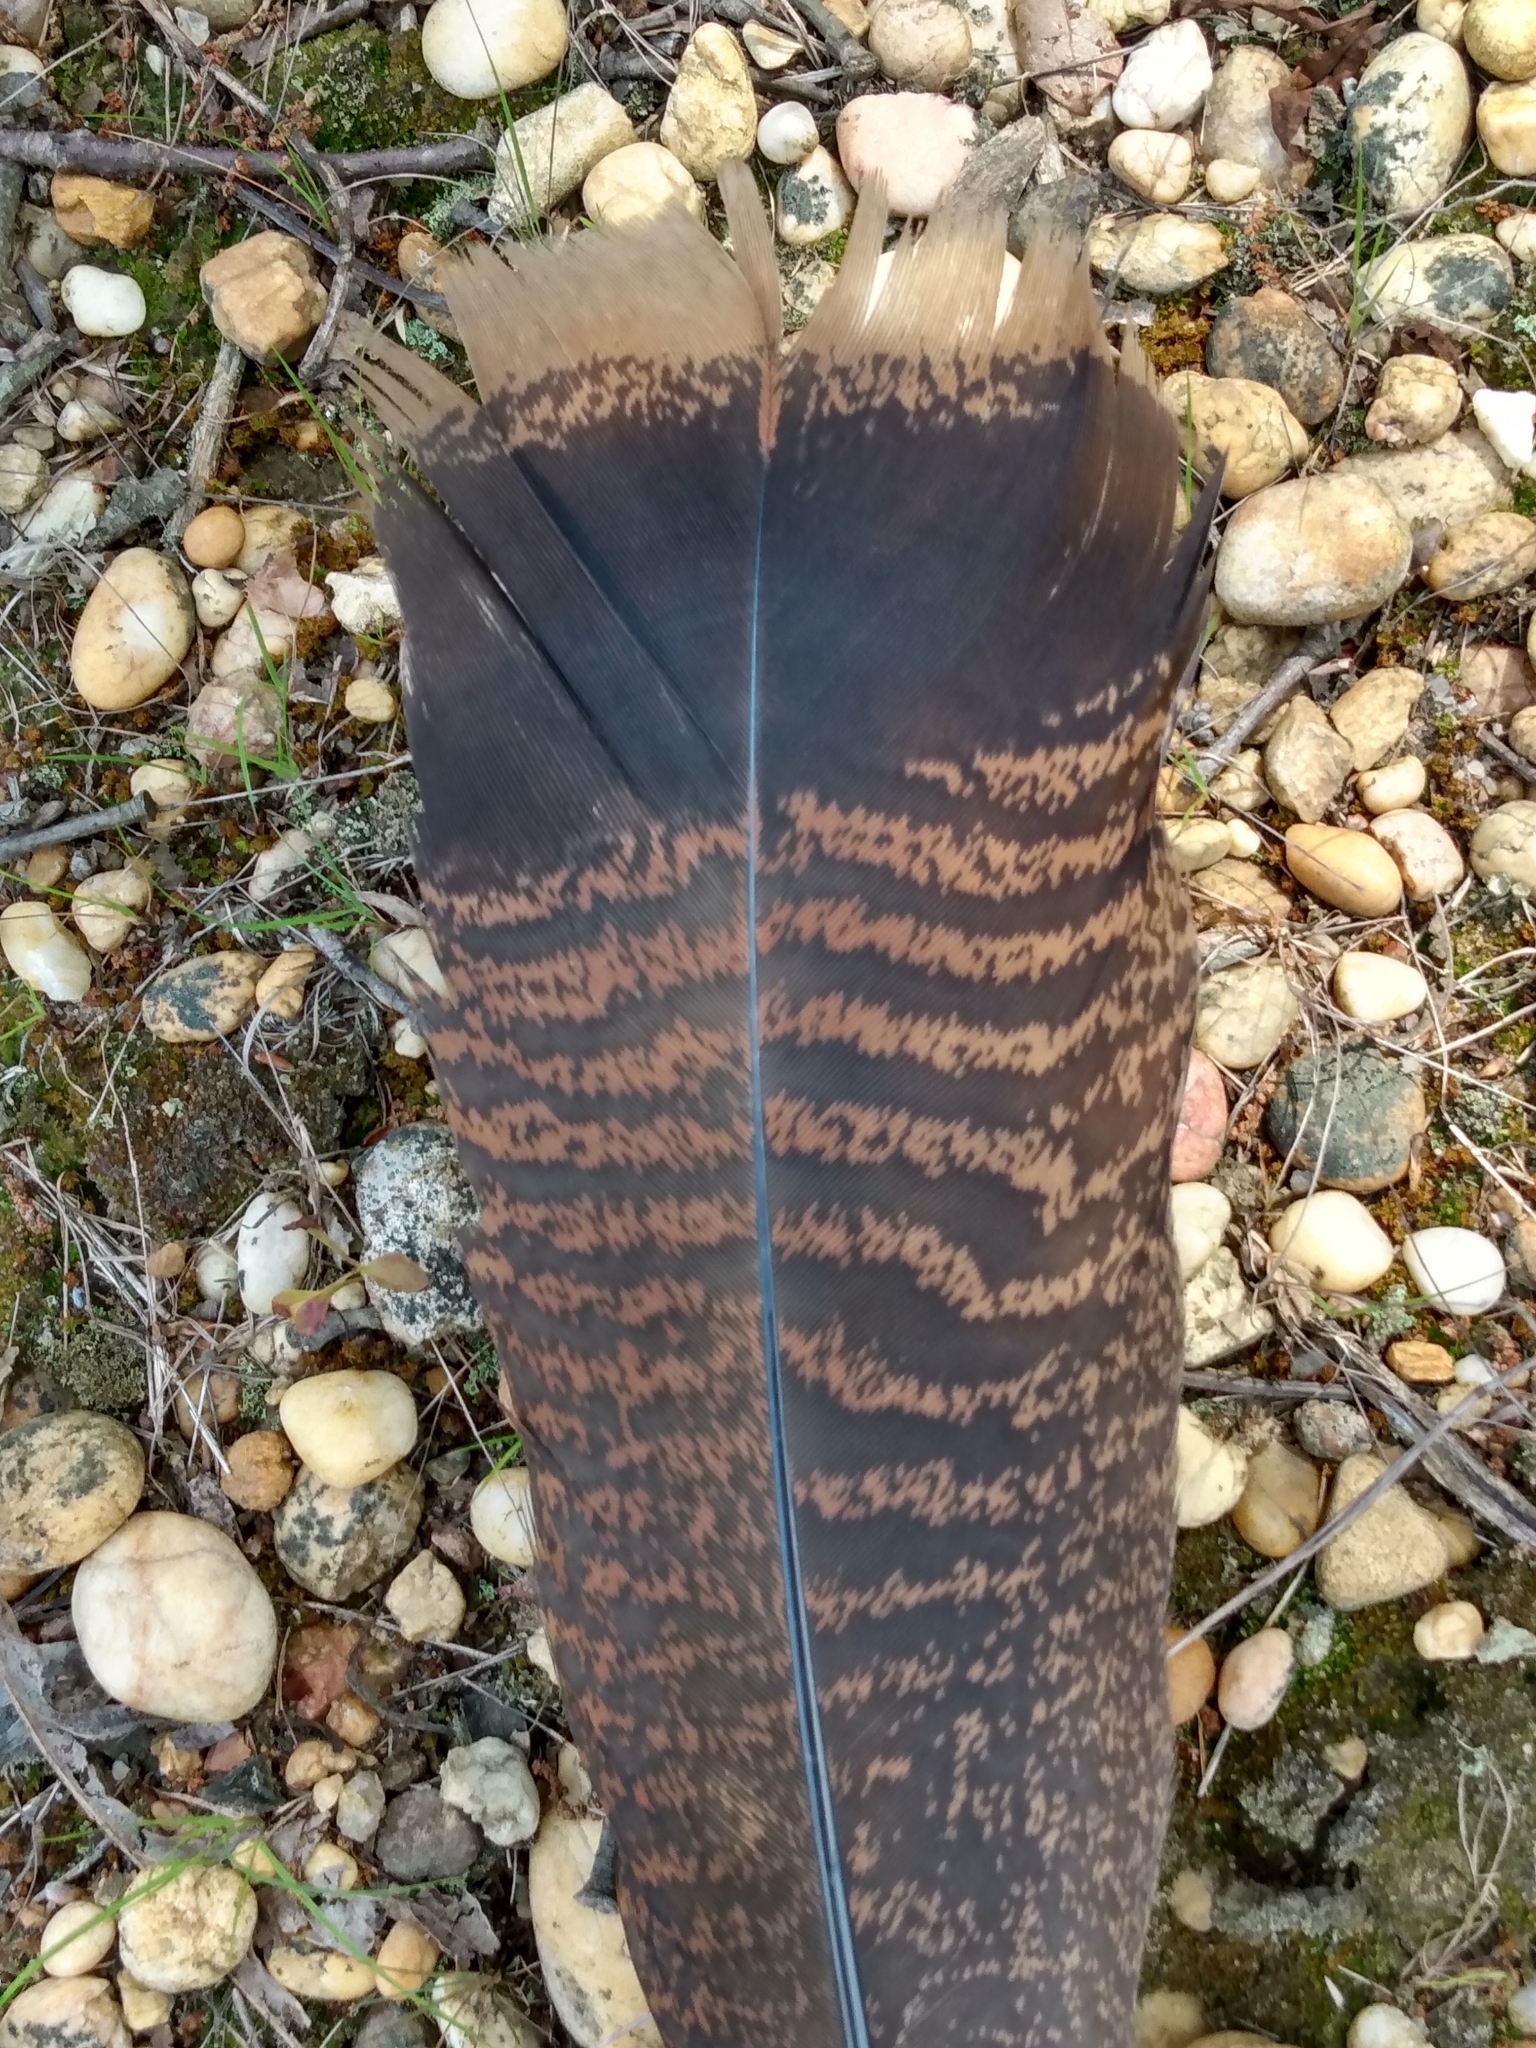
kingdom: Animalia
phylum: Chordata
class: Aves
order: Galliformes
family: Phasianidae
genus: Meleagris
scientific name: Meleagris gallopavo
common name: Wild turkey
